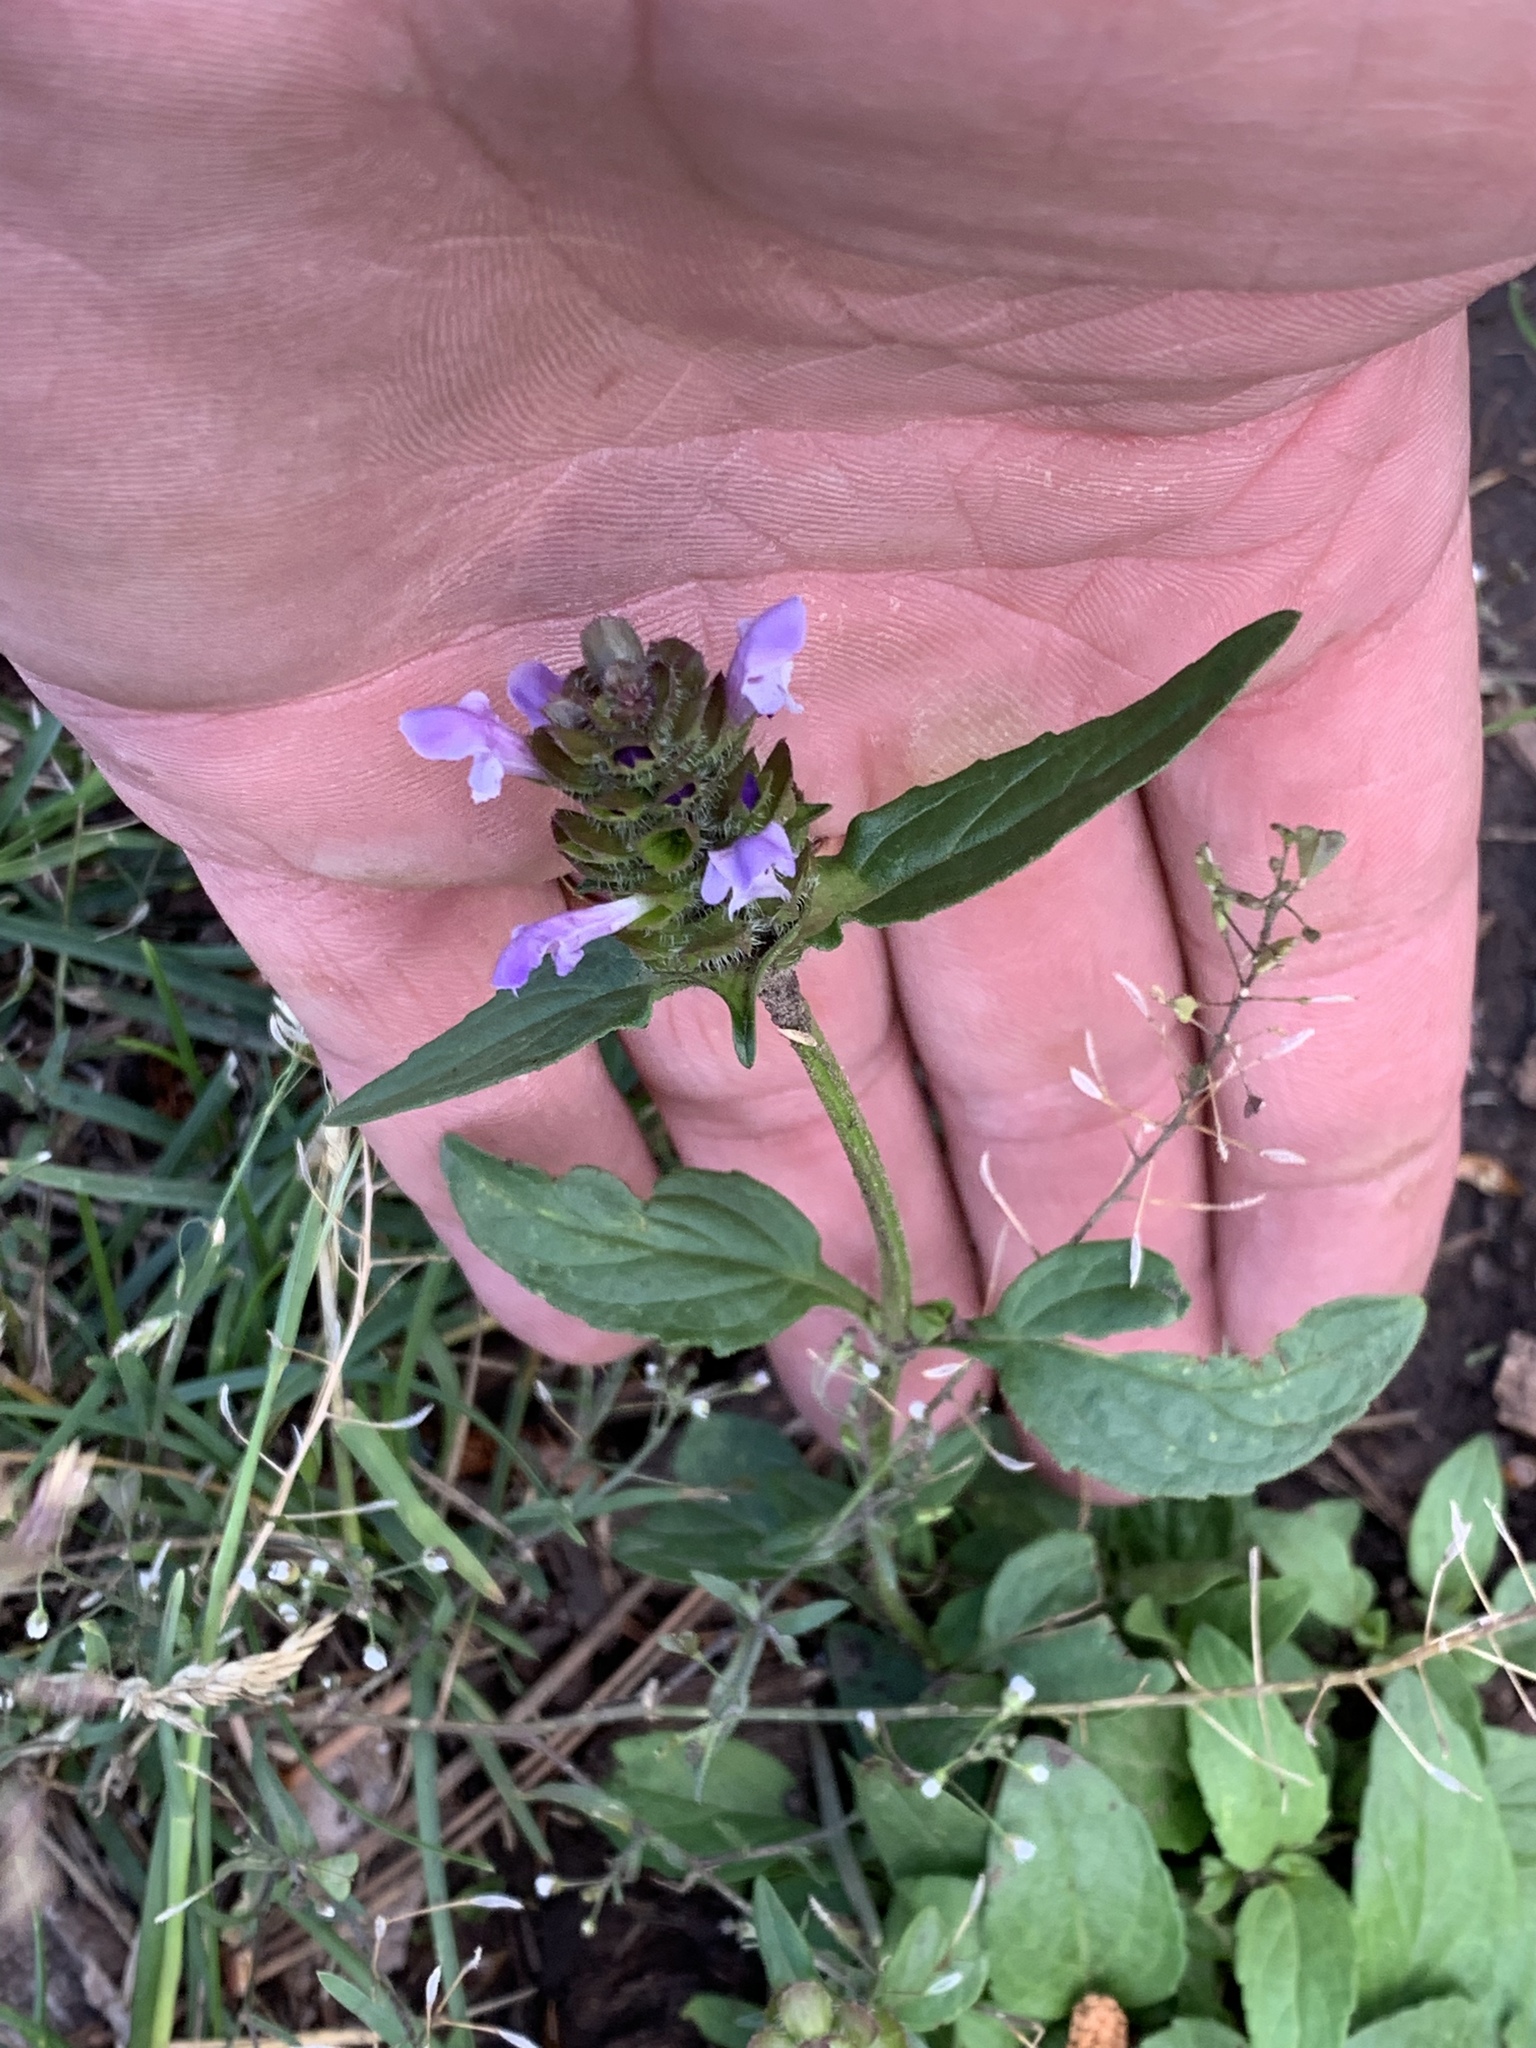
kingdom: Plantae
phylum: Tracheophyta
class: Magnoliopsida
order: Lamiales
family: Lamiaceae
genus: Prunella
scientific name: Prunella vulgaris
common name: Heal-all
